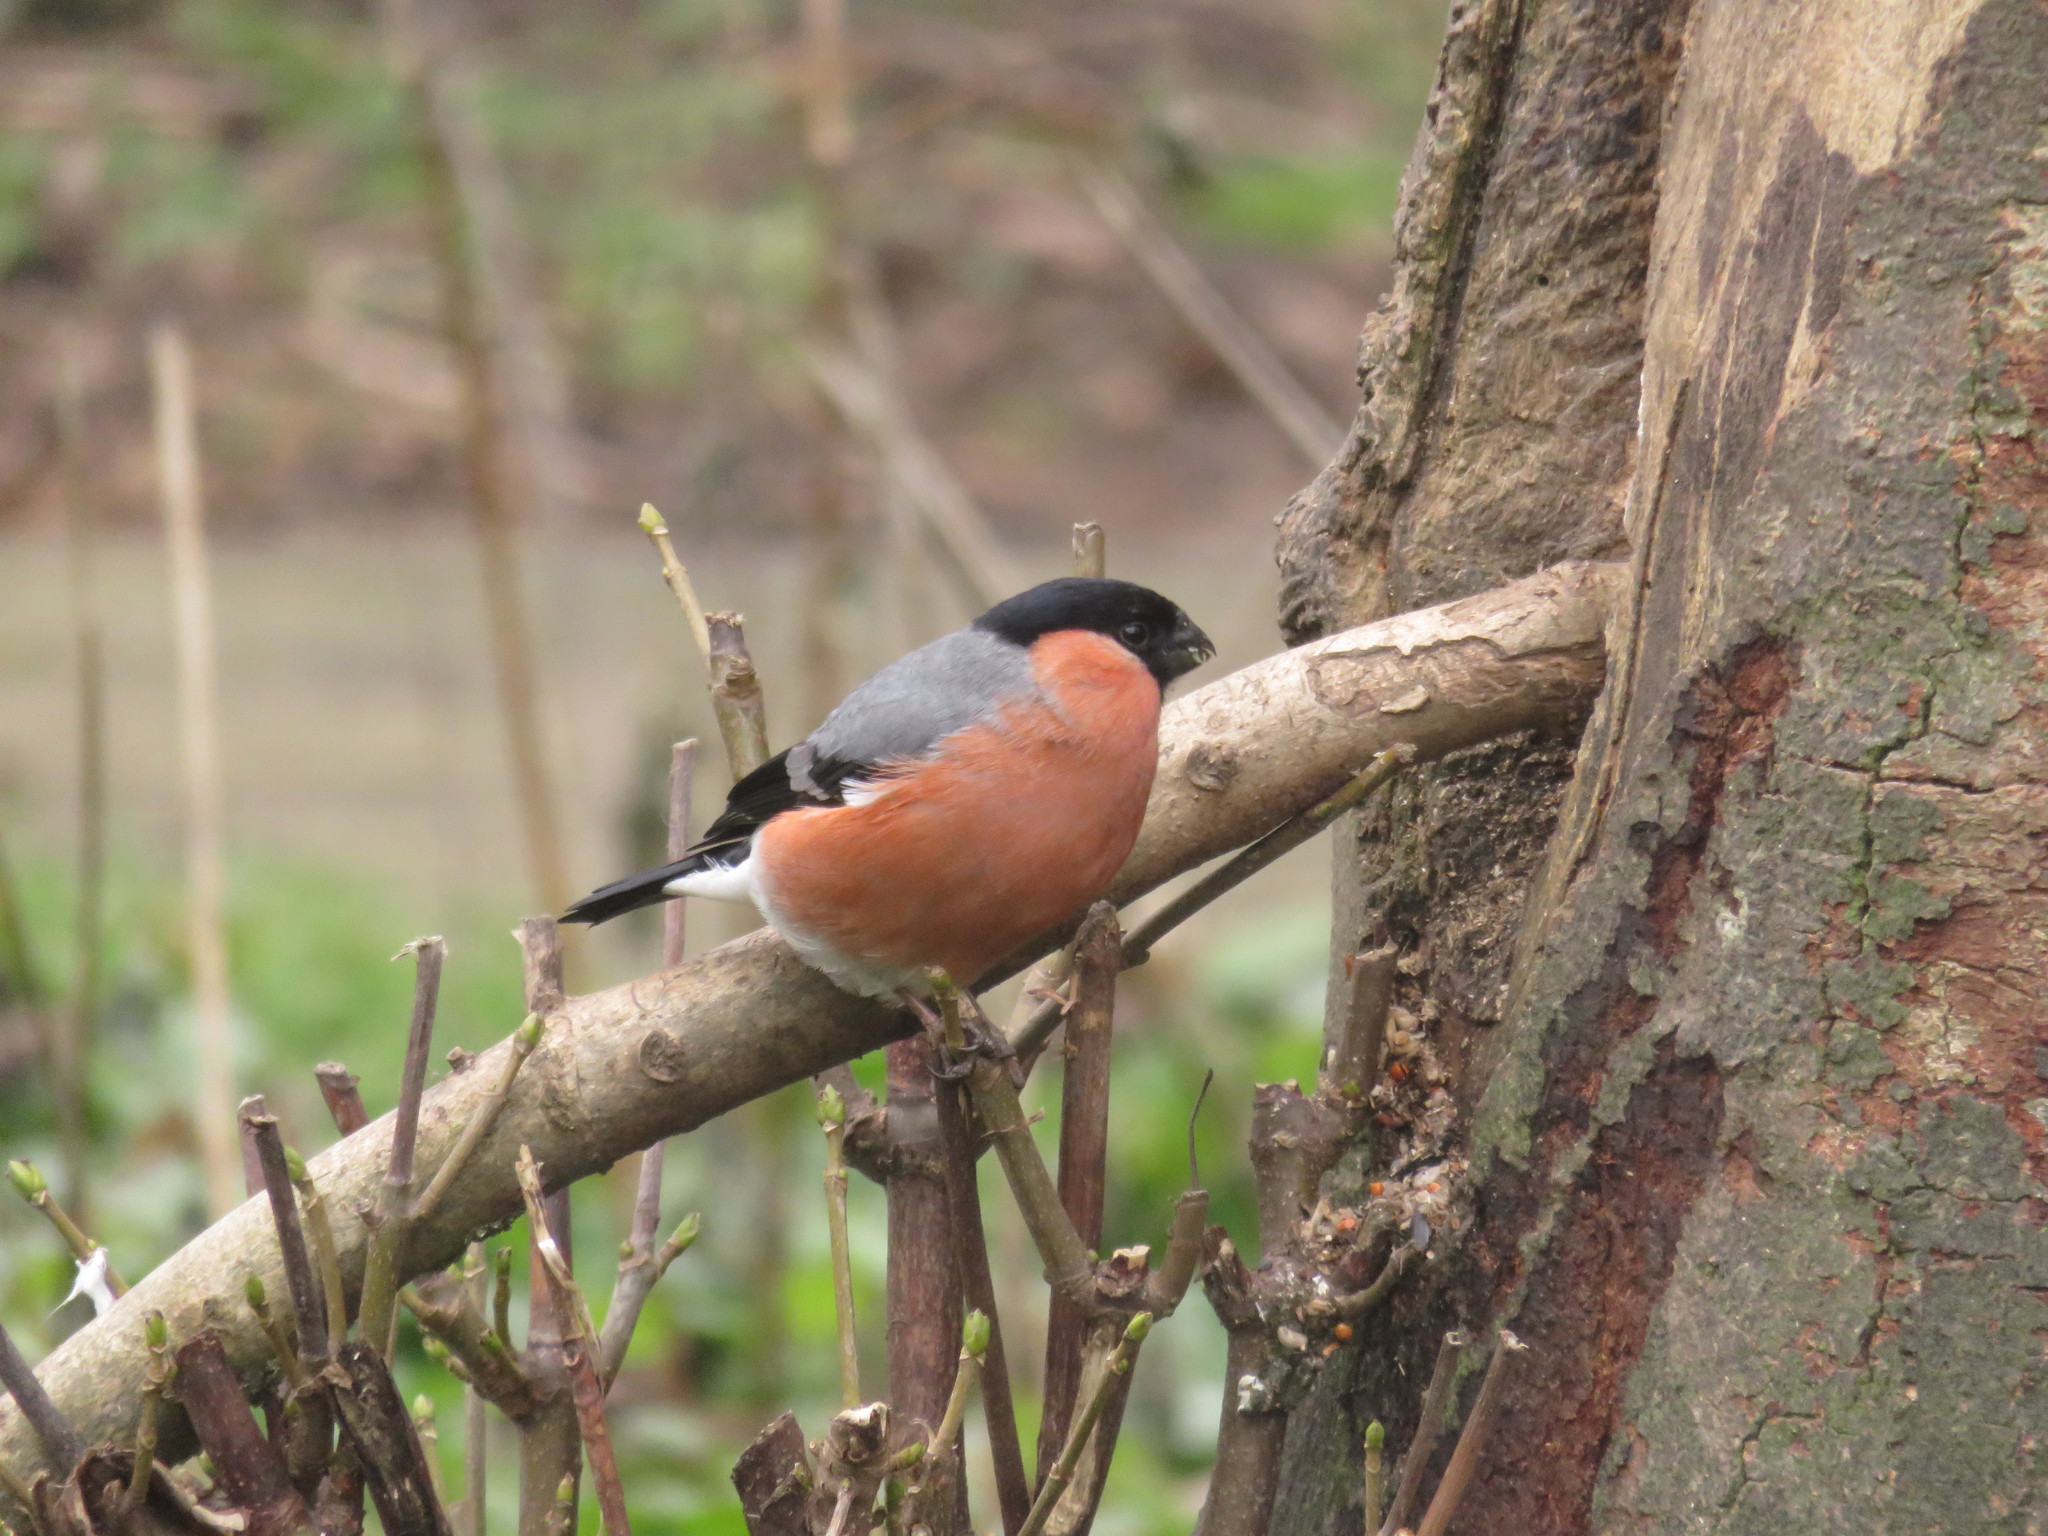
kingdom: Animalia
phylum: Chordata
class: Aves
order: Passeriformes
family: Fringillidae
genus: Pyrrhula
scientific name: Pyrrhula pyrrhula
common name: Eurasian bullfinch
